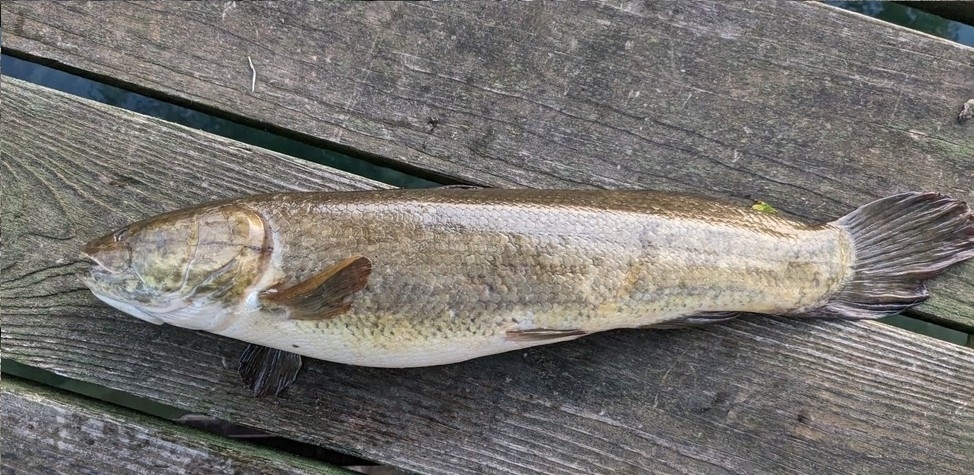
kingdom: Animalia
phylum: Chordata
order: Amiiformes
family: Amiidae
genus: Amia
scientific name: Amia calva
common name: Bowfin
